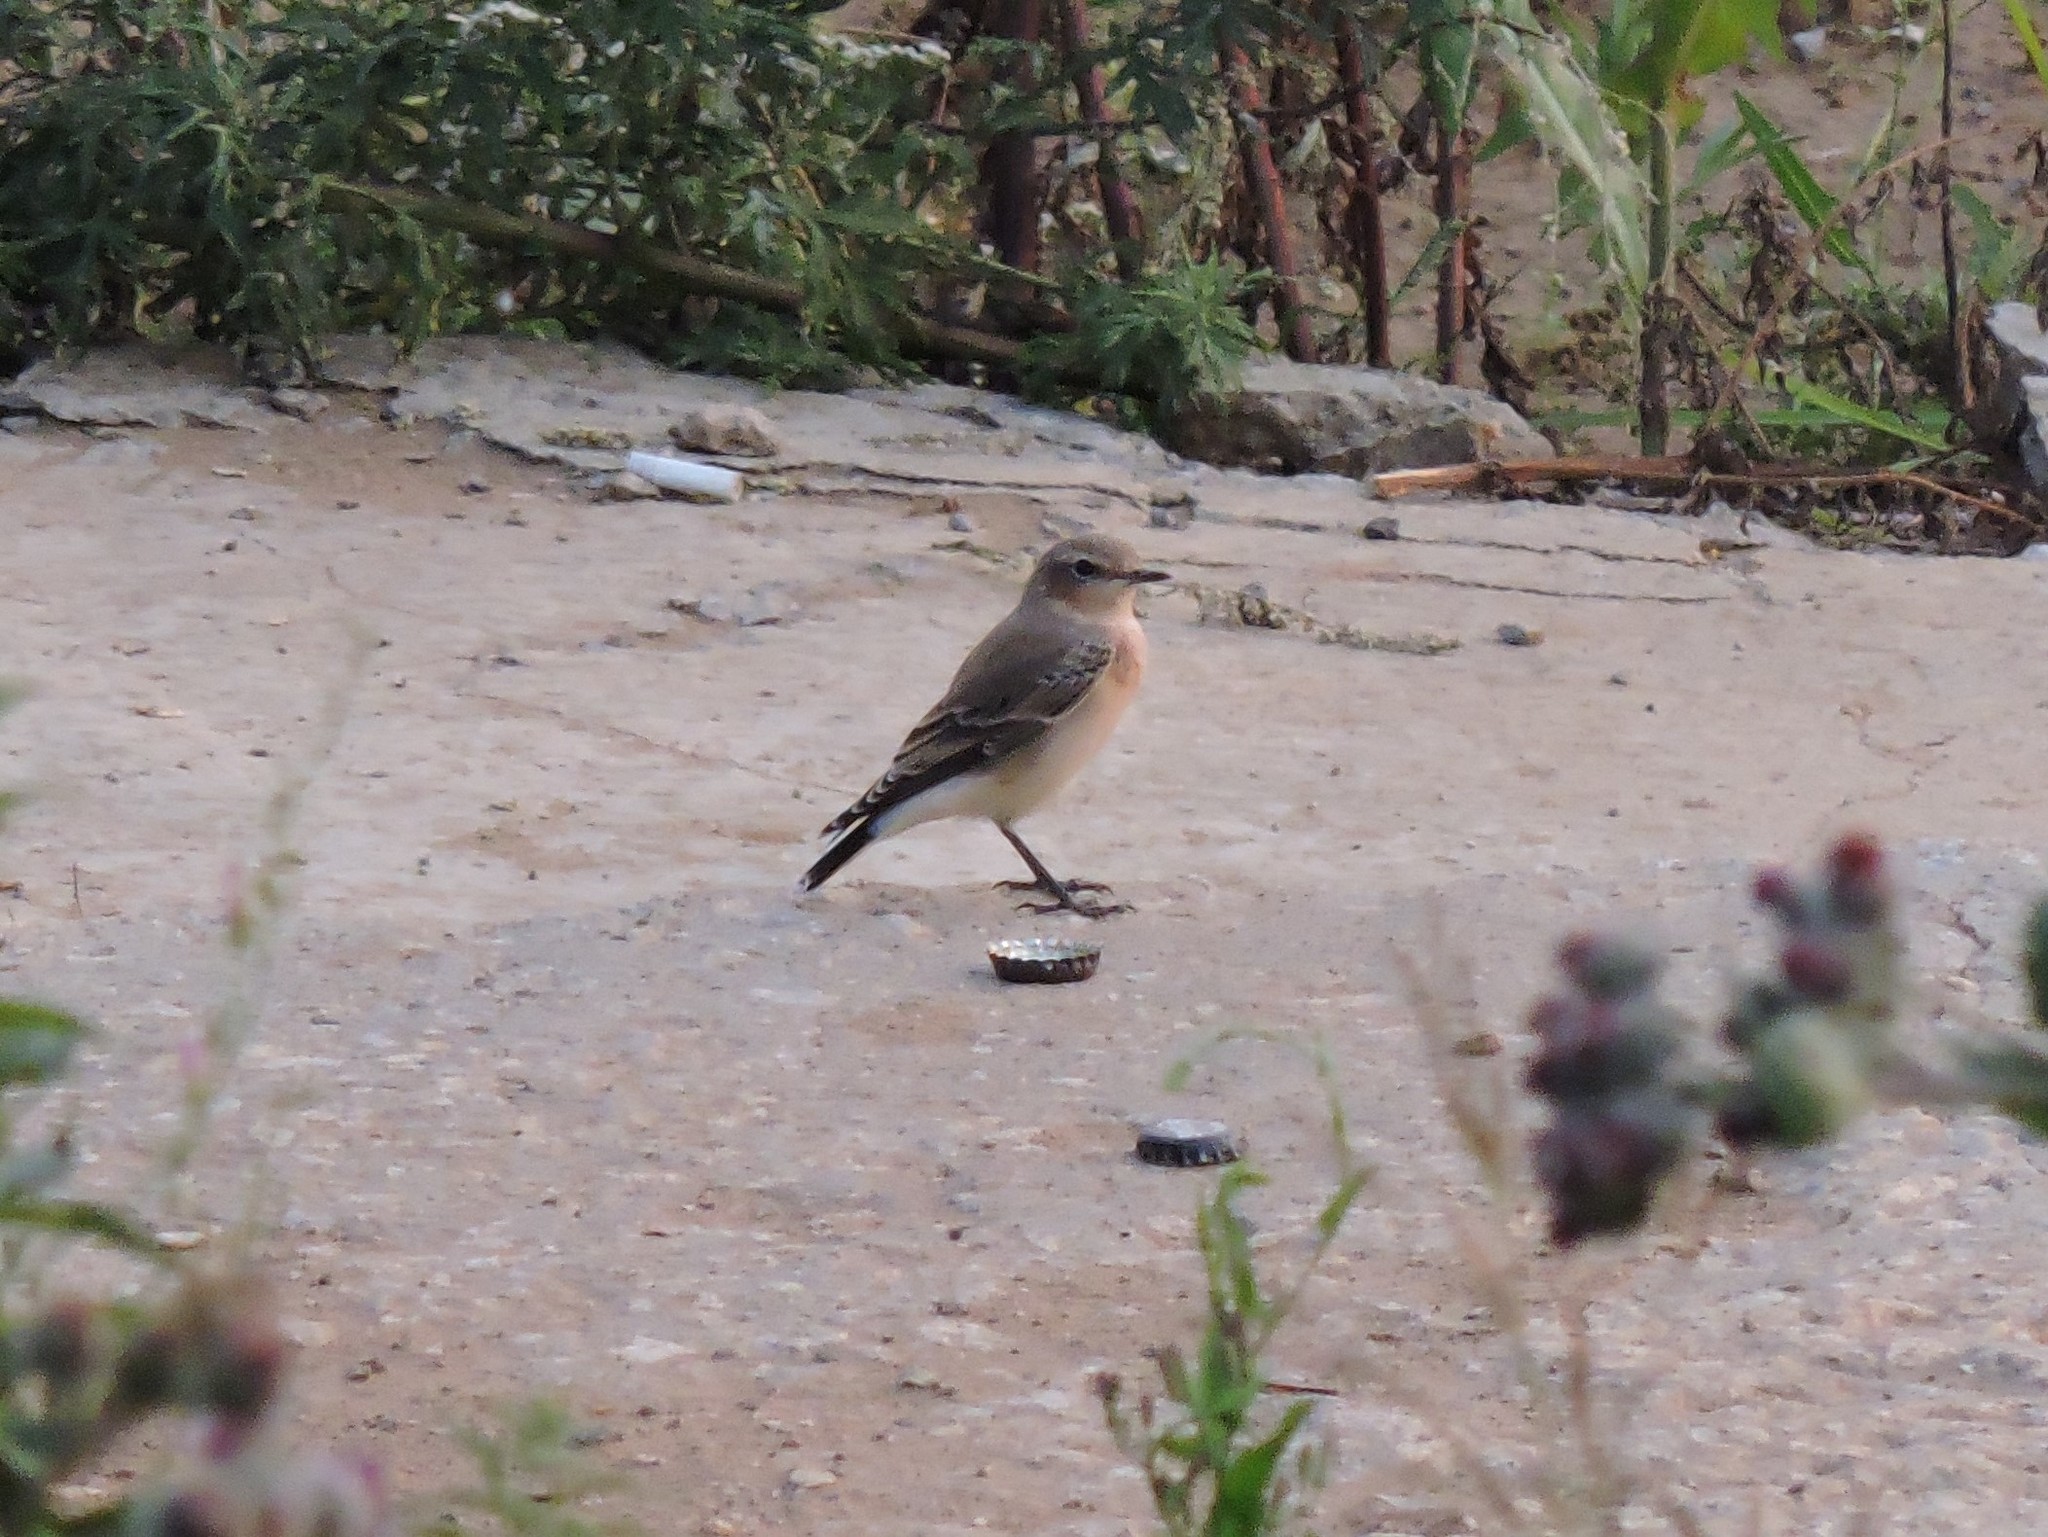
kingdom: Animalia
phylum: Chordata
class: Aves
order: Passeriformes
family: Muscicapidae
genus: Oenanthe
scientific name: Oenanthe oenanthe
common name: Northern wheatear
